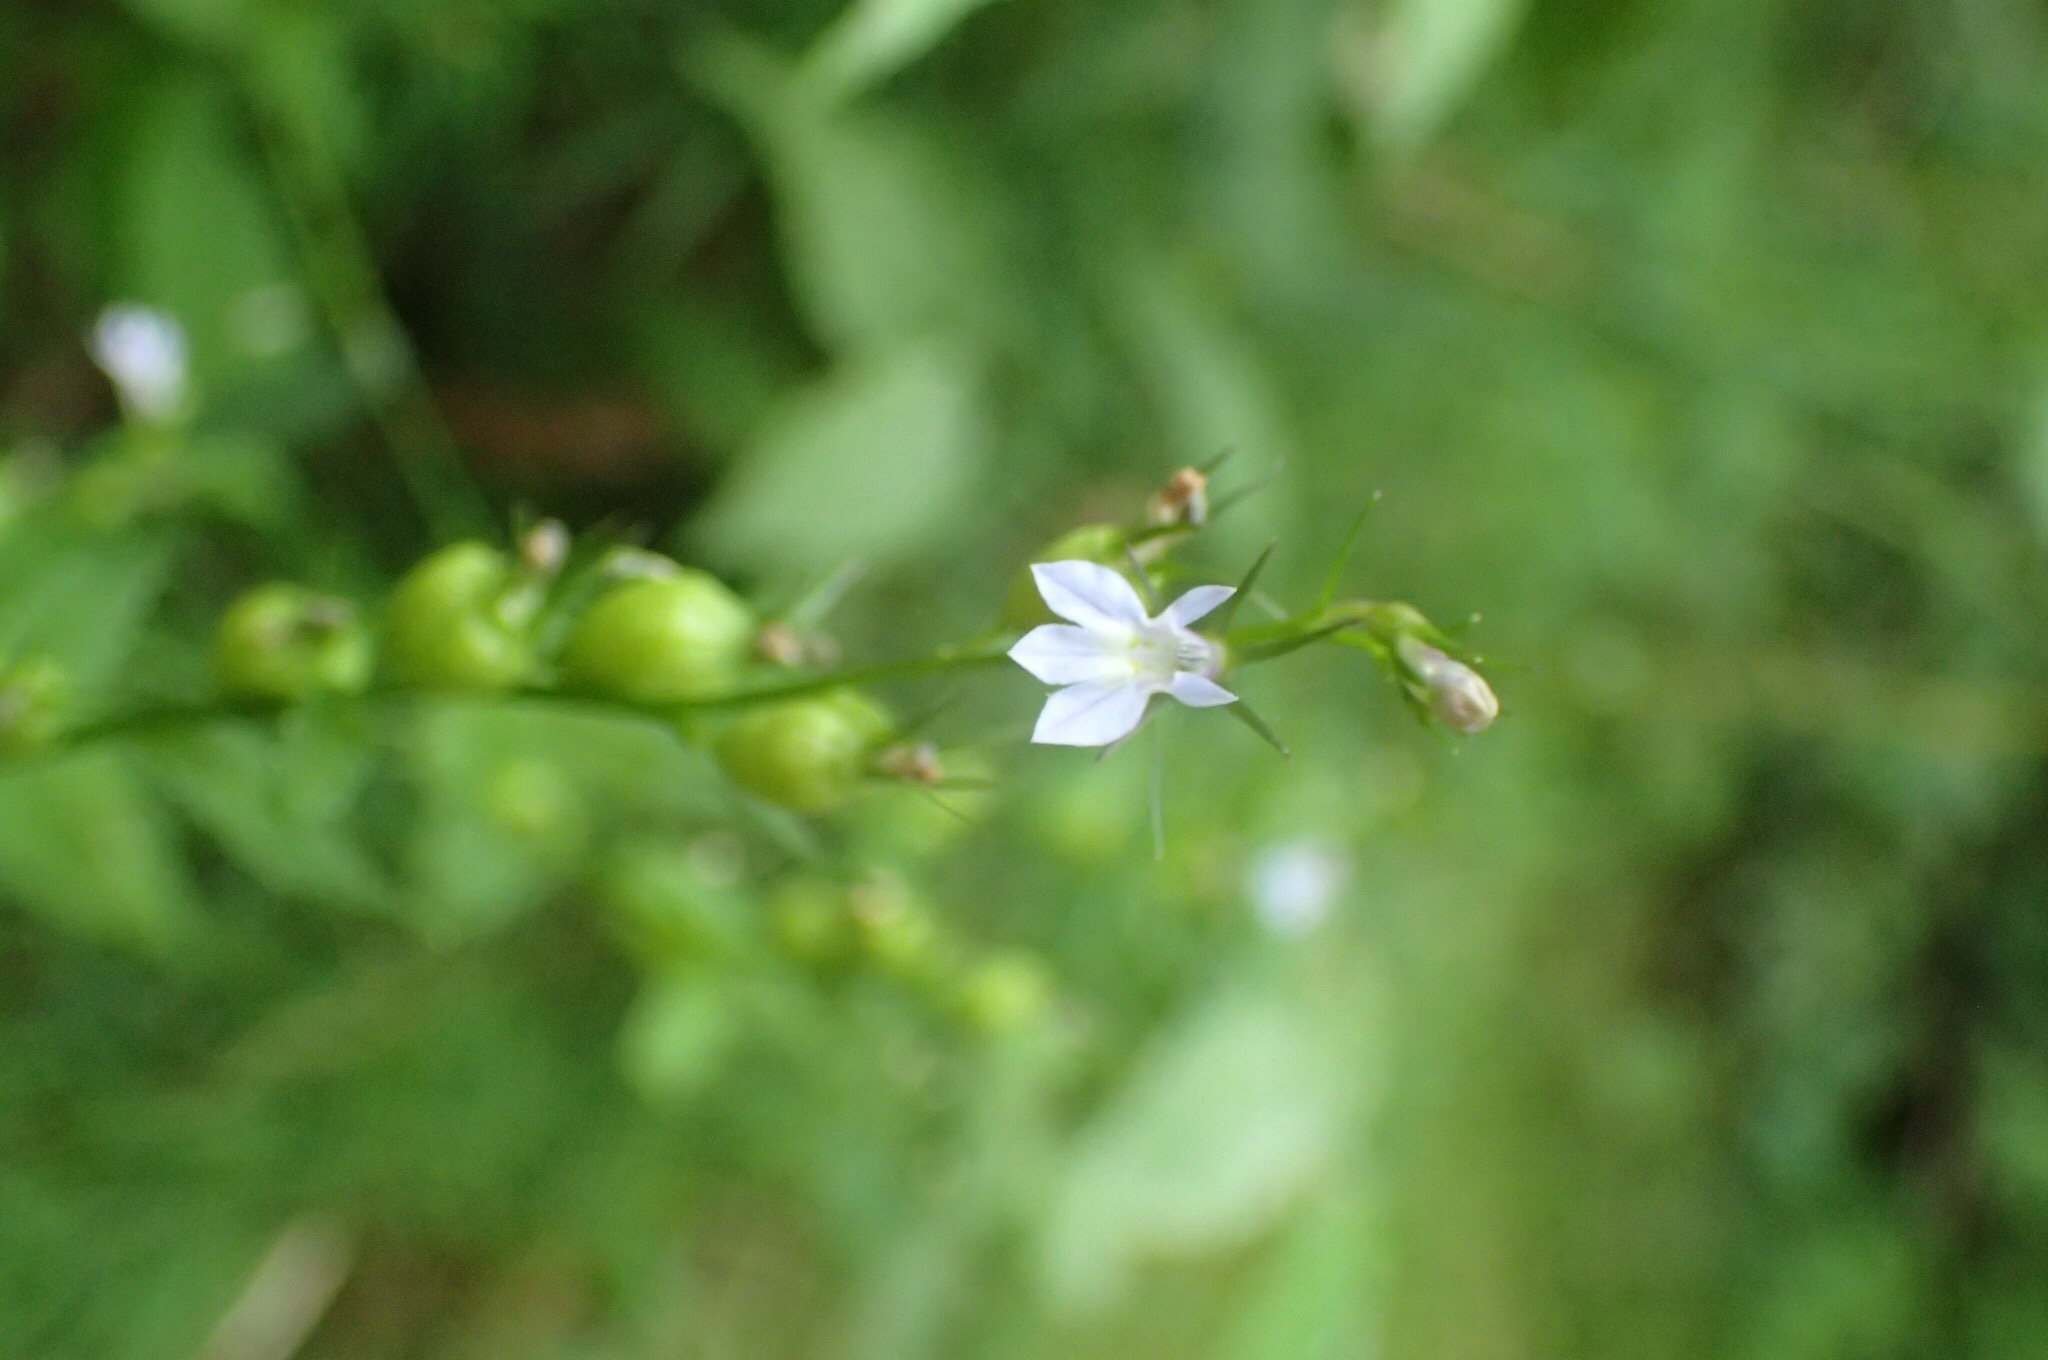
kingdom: Plantae
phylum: Tracheophyta
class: Magnoliopsida
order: Asterales
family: Campanulaceae
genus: Lobelia
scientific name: Lobelia inflata
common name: Indian tobacco
